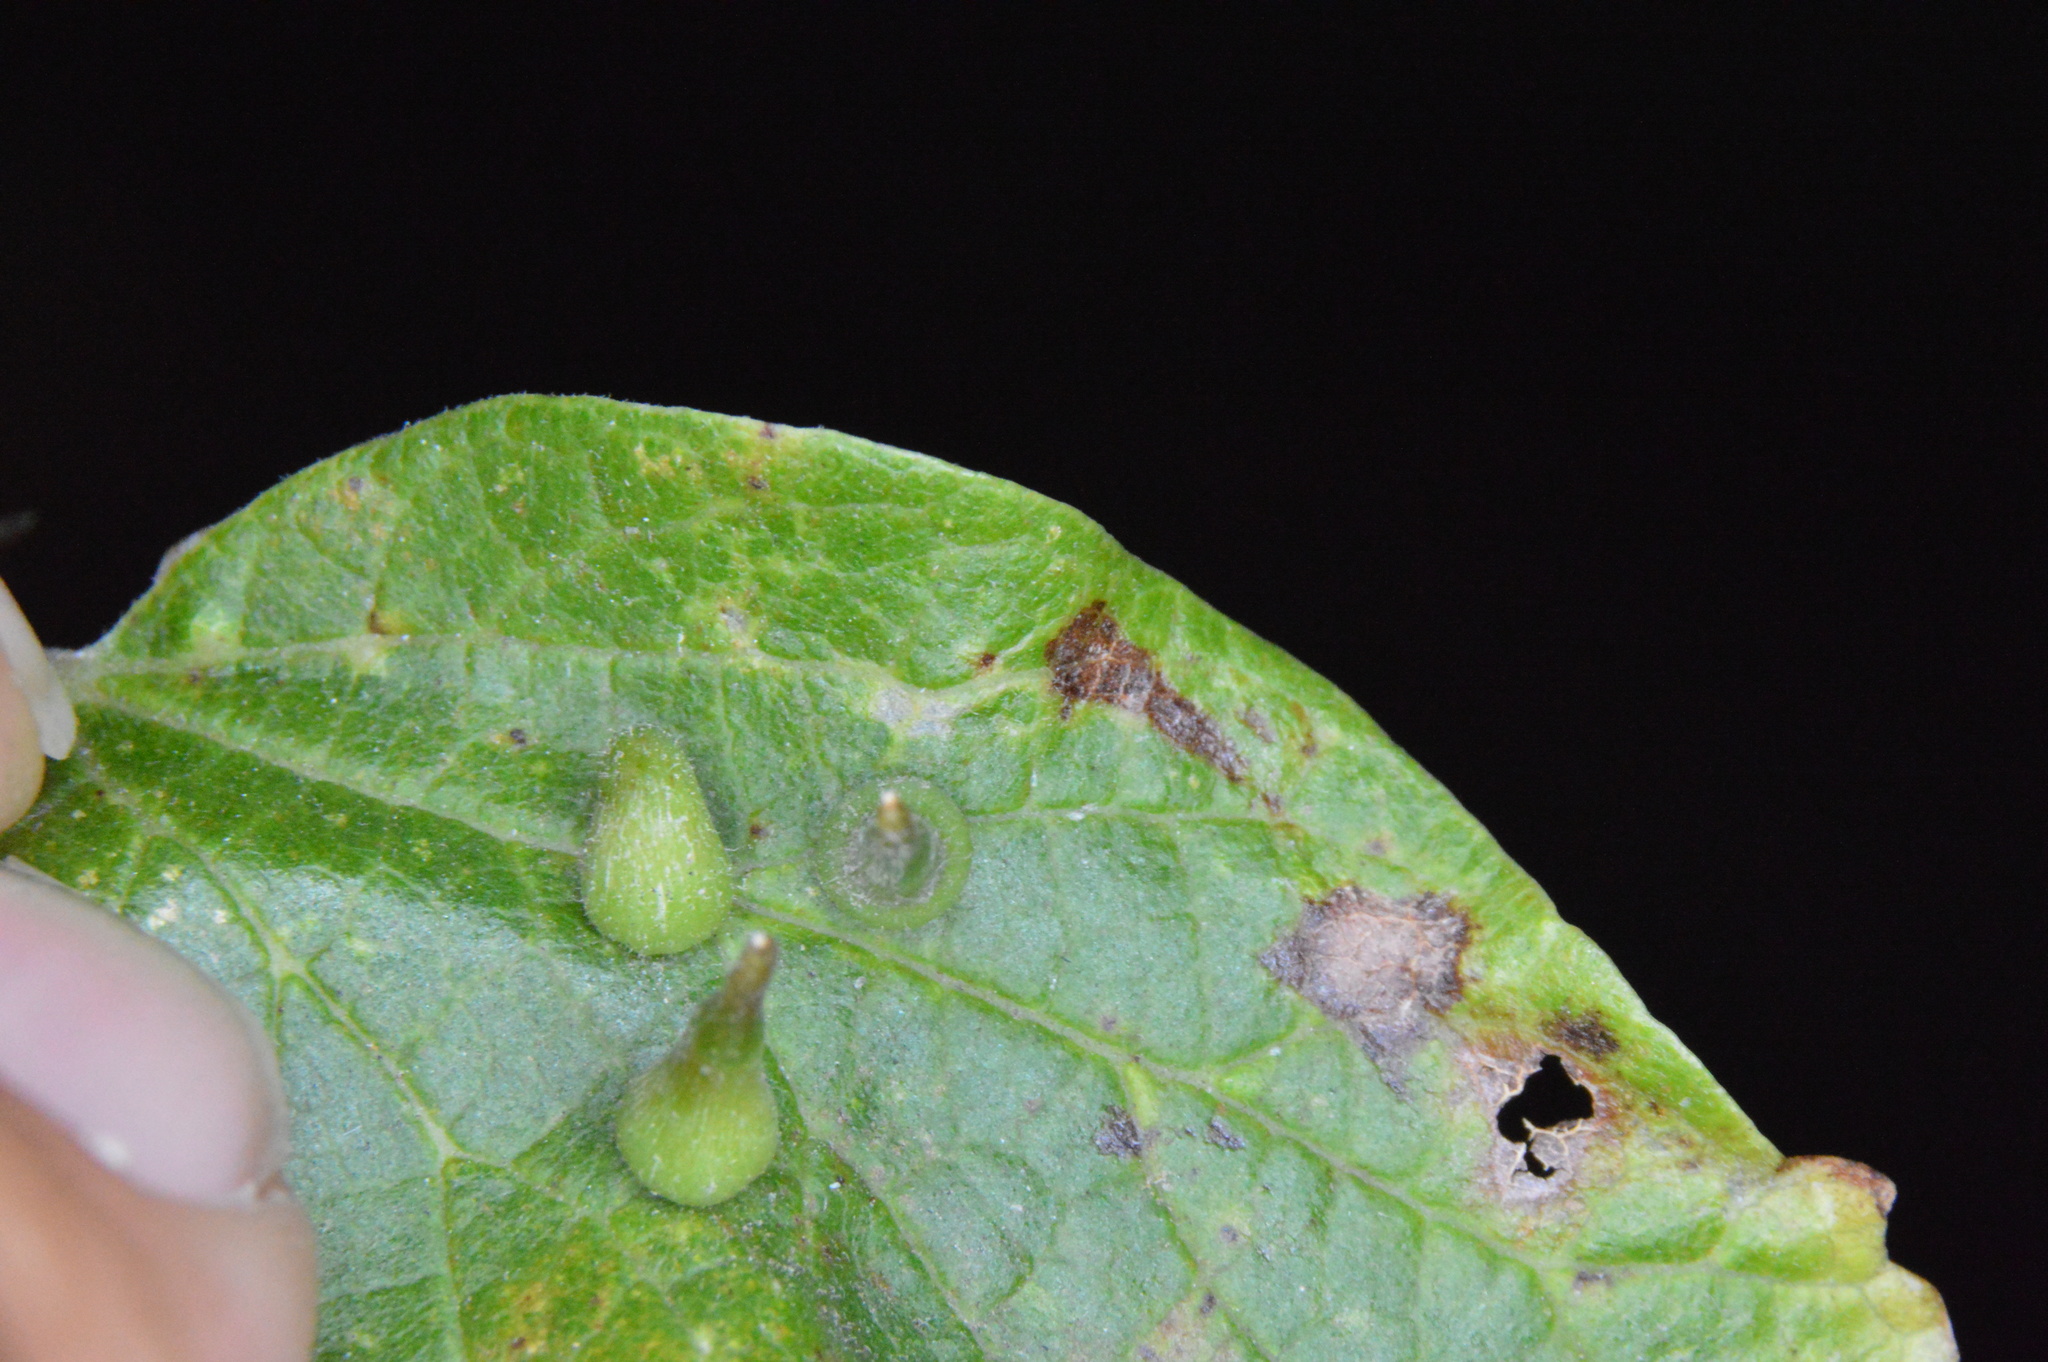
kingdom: Animalia
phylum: Arthropoda
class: Insecta
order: Diptera
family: Cecidomyiidae
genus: Celticecis
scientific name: Celticecis subulata
